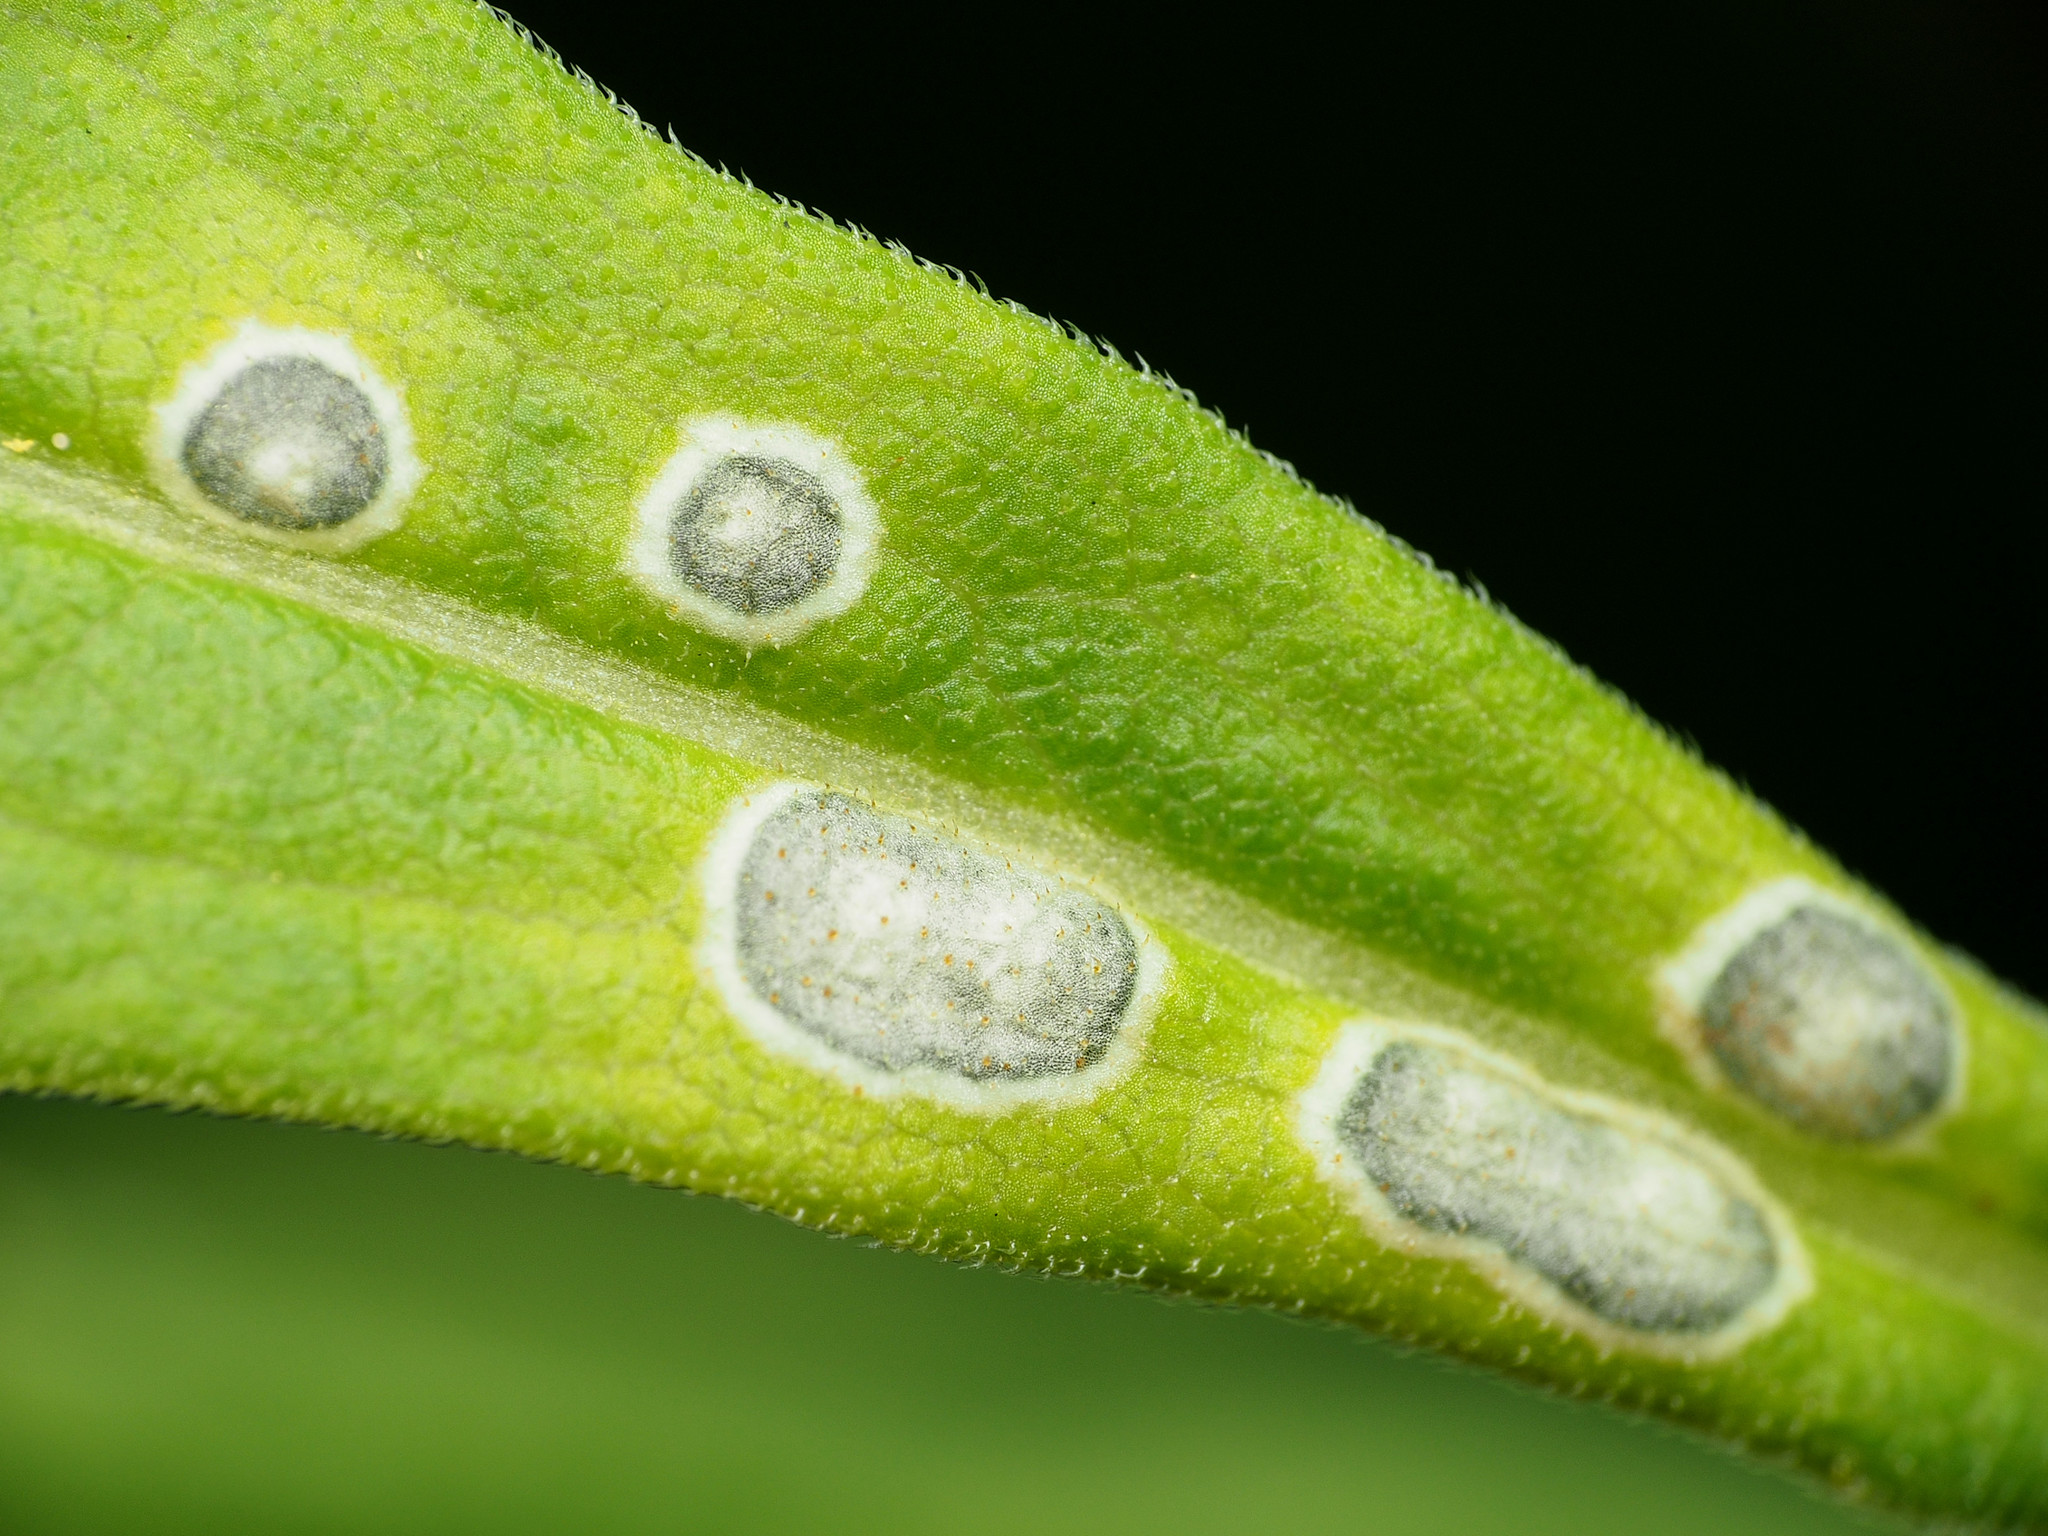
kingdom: Animalia
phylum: Arthropoda
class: Insecta
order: Diptera
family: Cecidomyiidae
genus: Asteromyia
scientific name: Asteromyia carbonifera
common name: Carbonifera goldenrod gall midge
